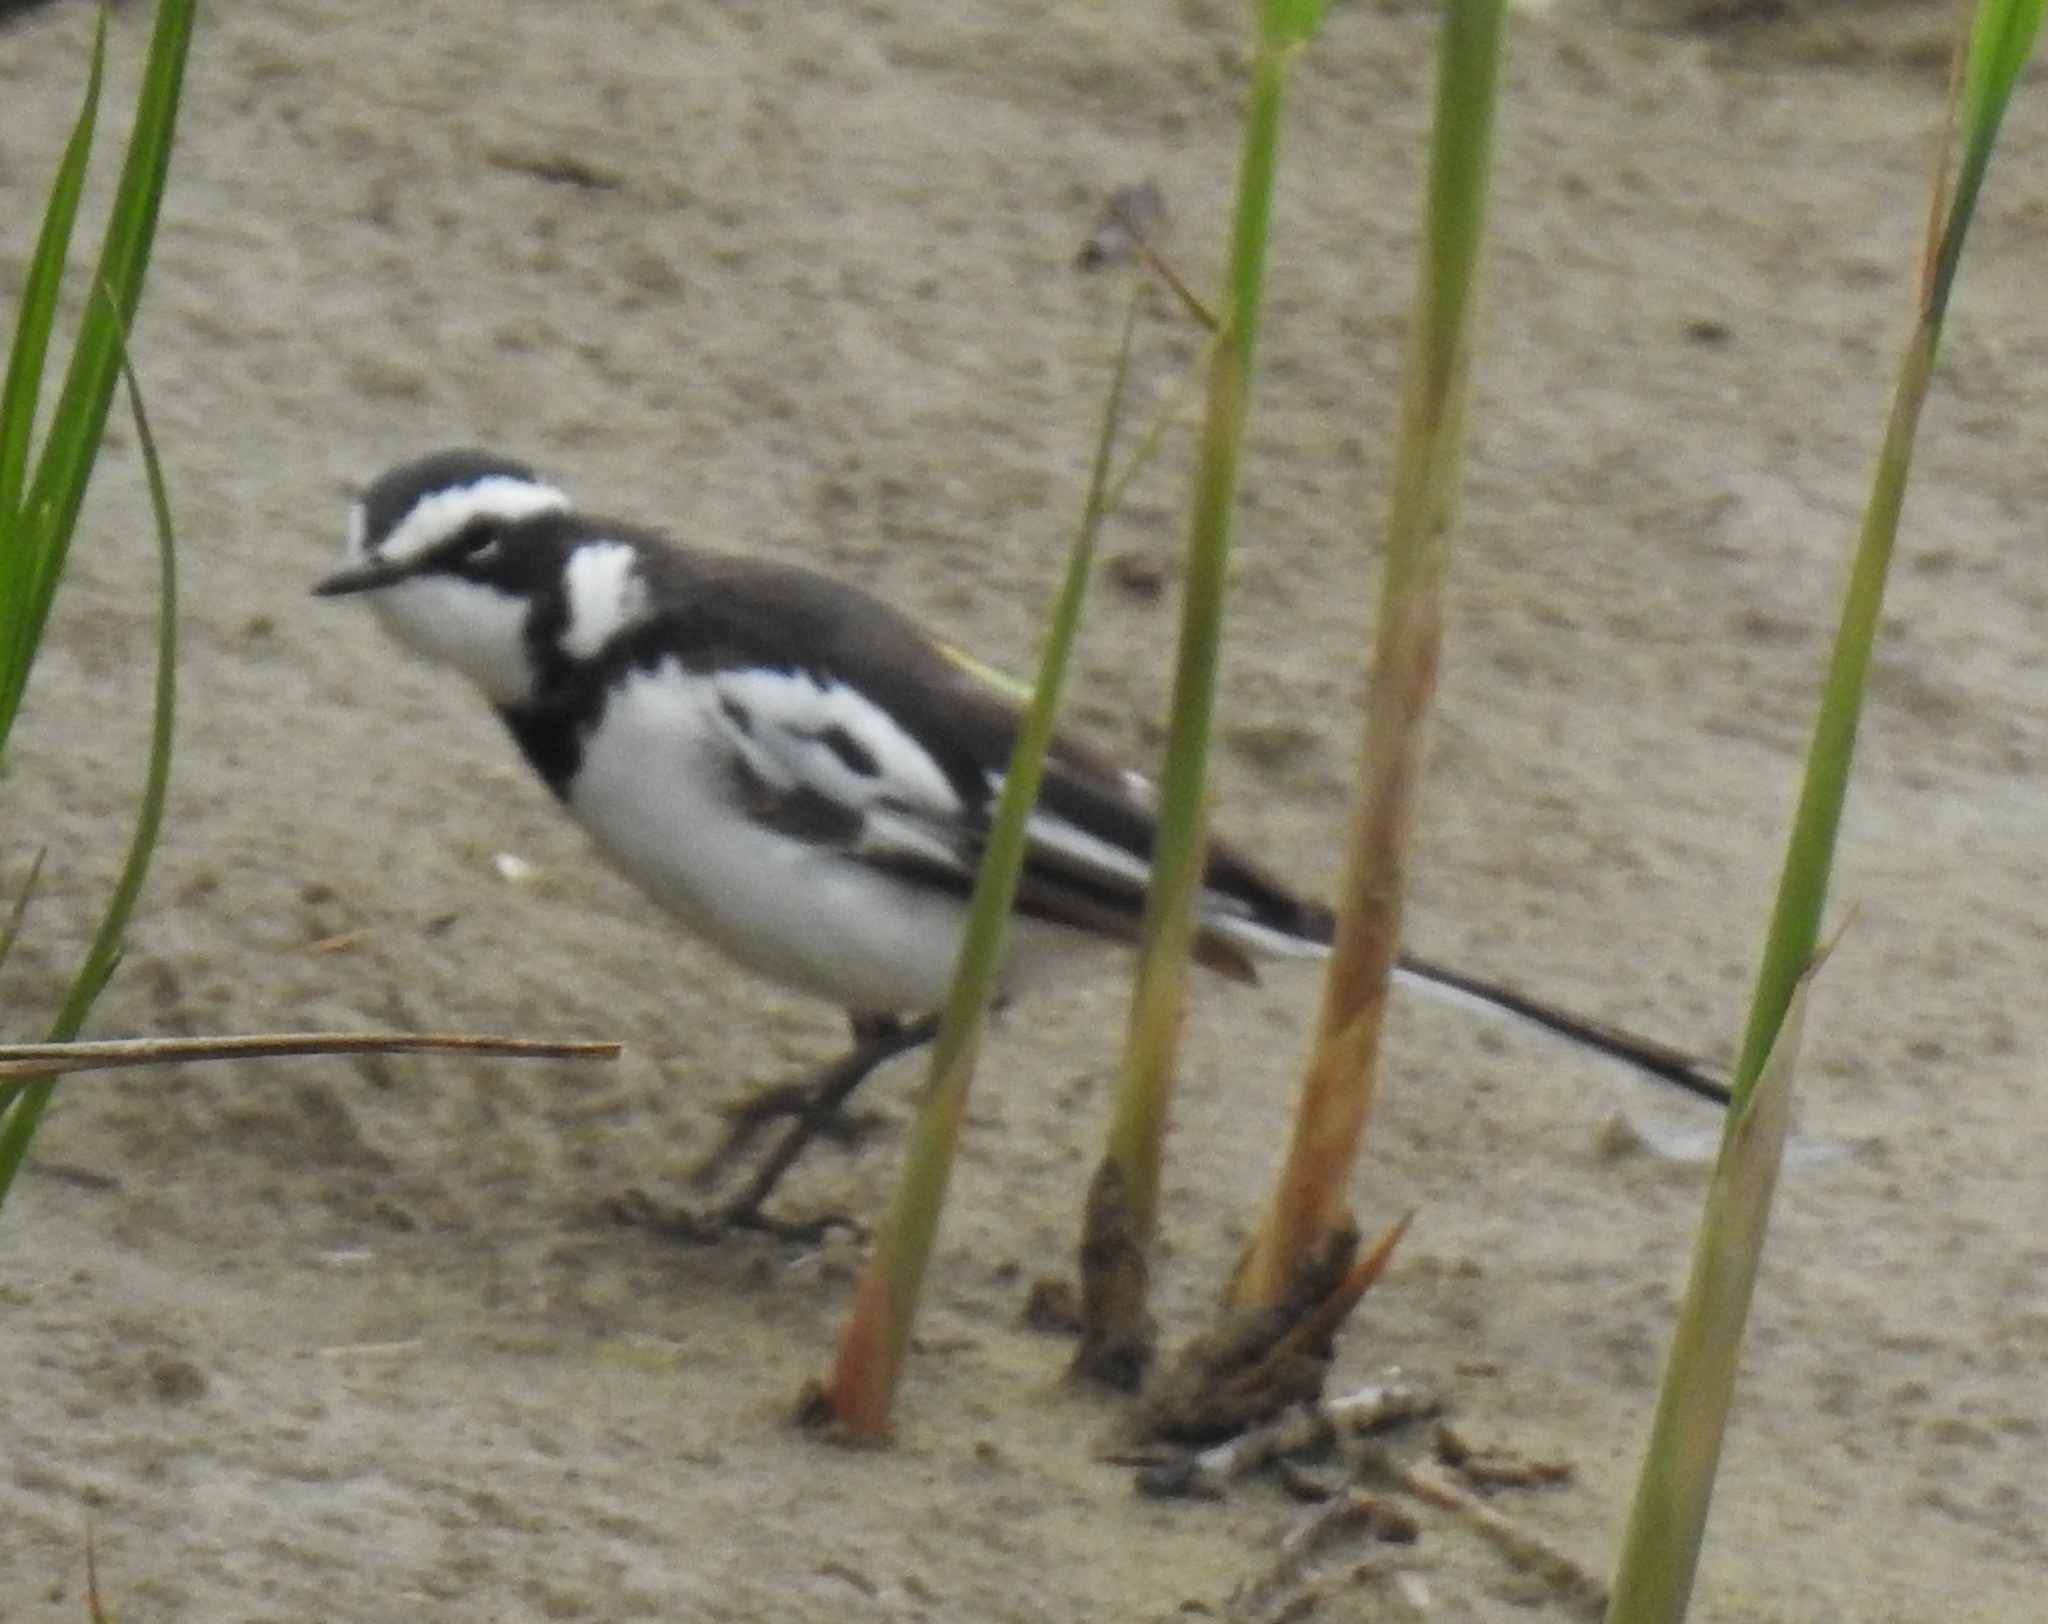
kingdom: Animalia
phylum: Chordata
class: Aves
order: Passeriformes
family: Motacillidae
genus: Motacilla
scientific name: Motacilla aguimp
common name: African pied wagtail
